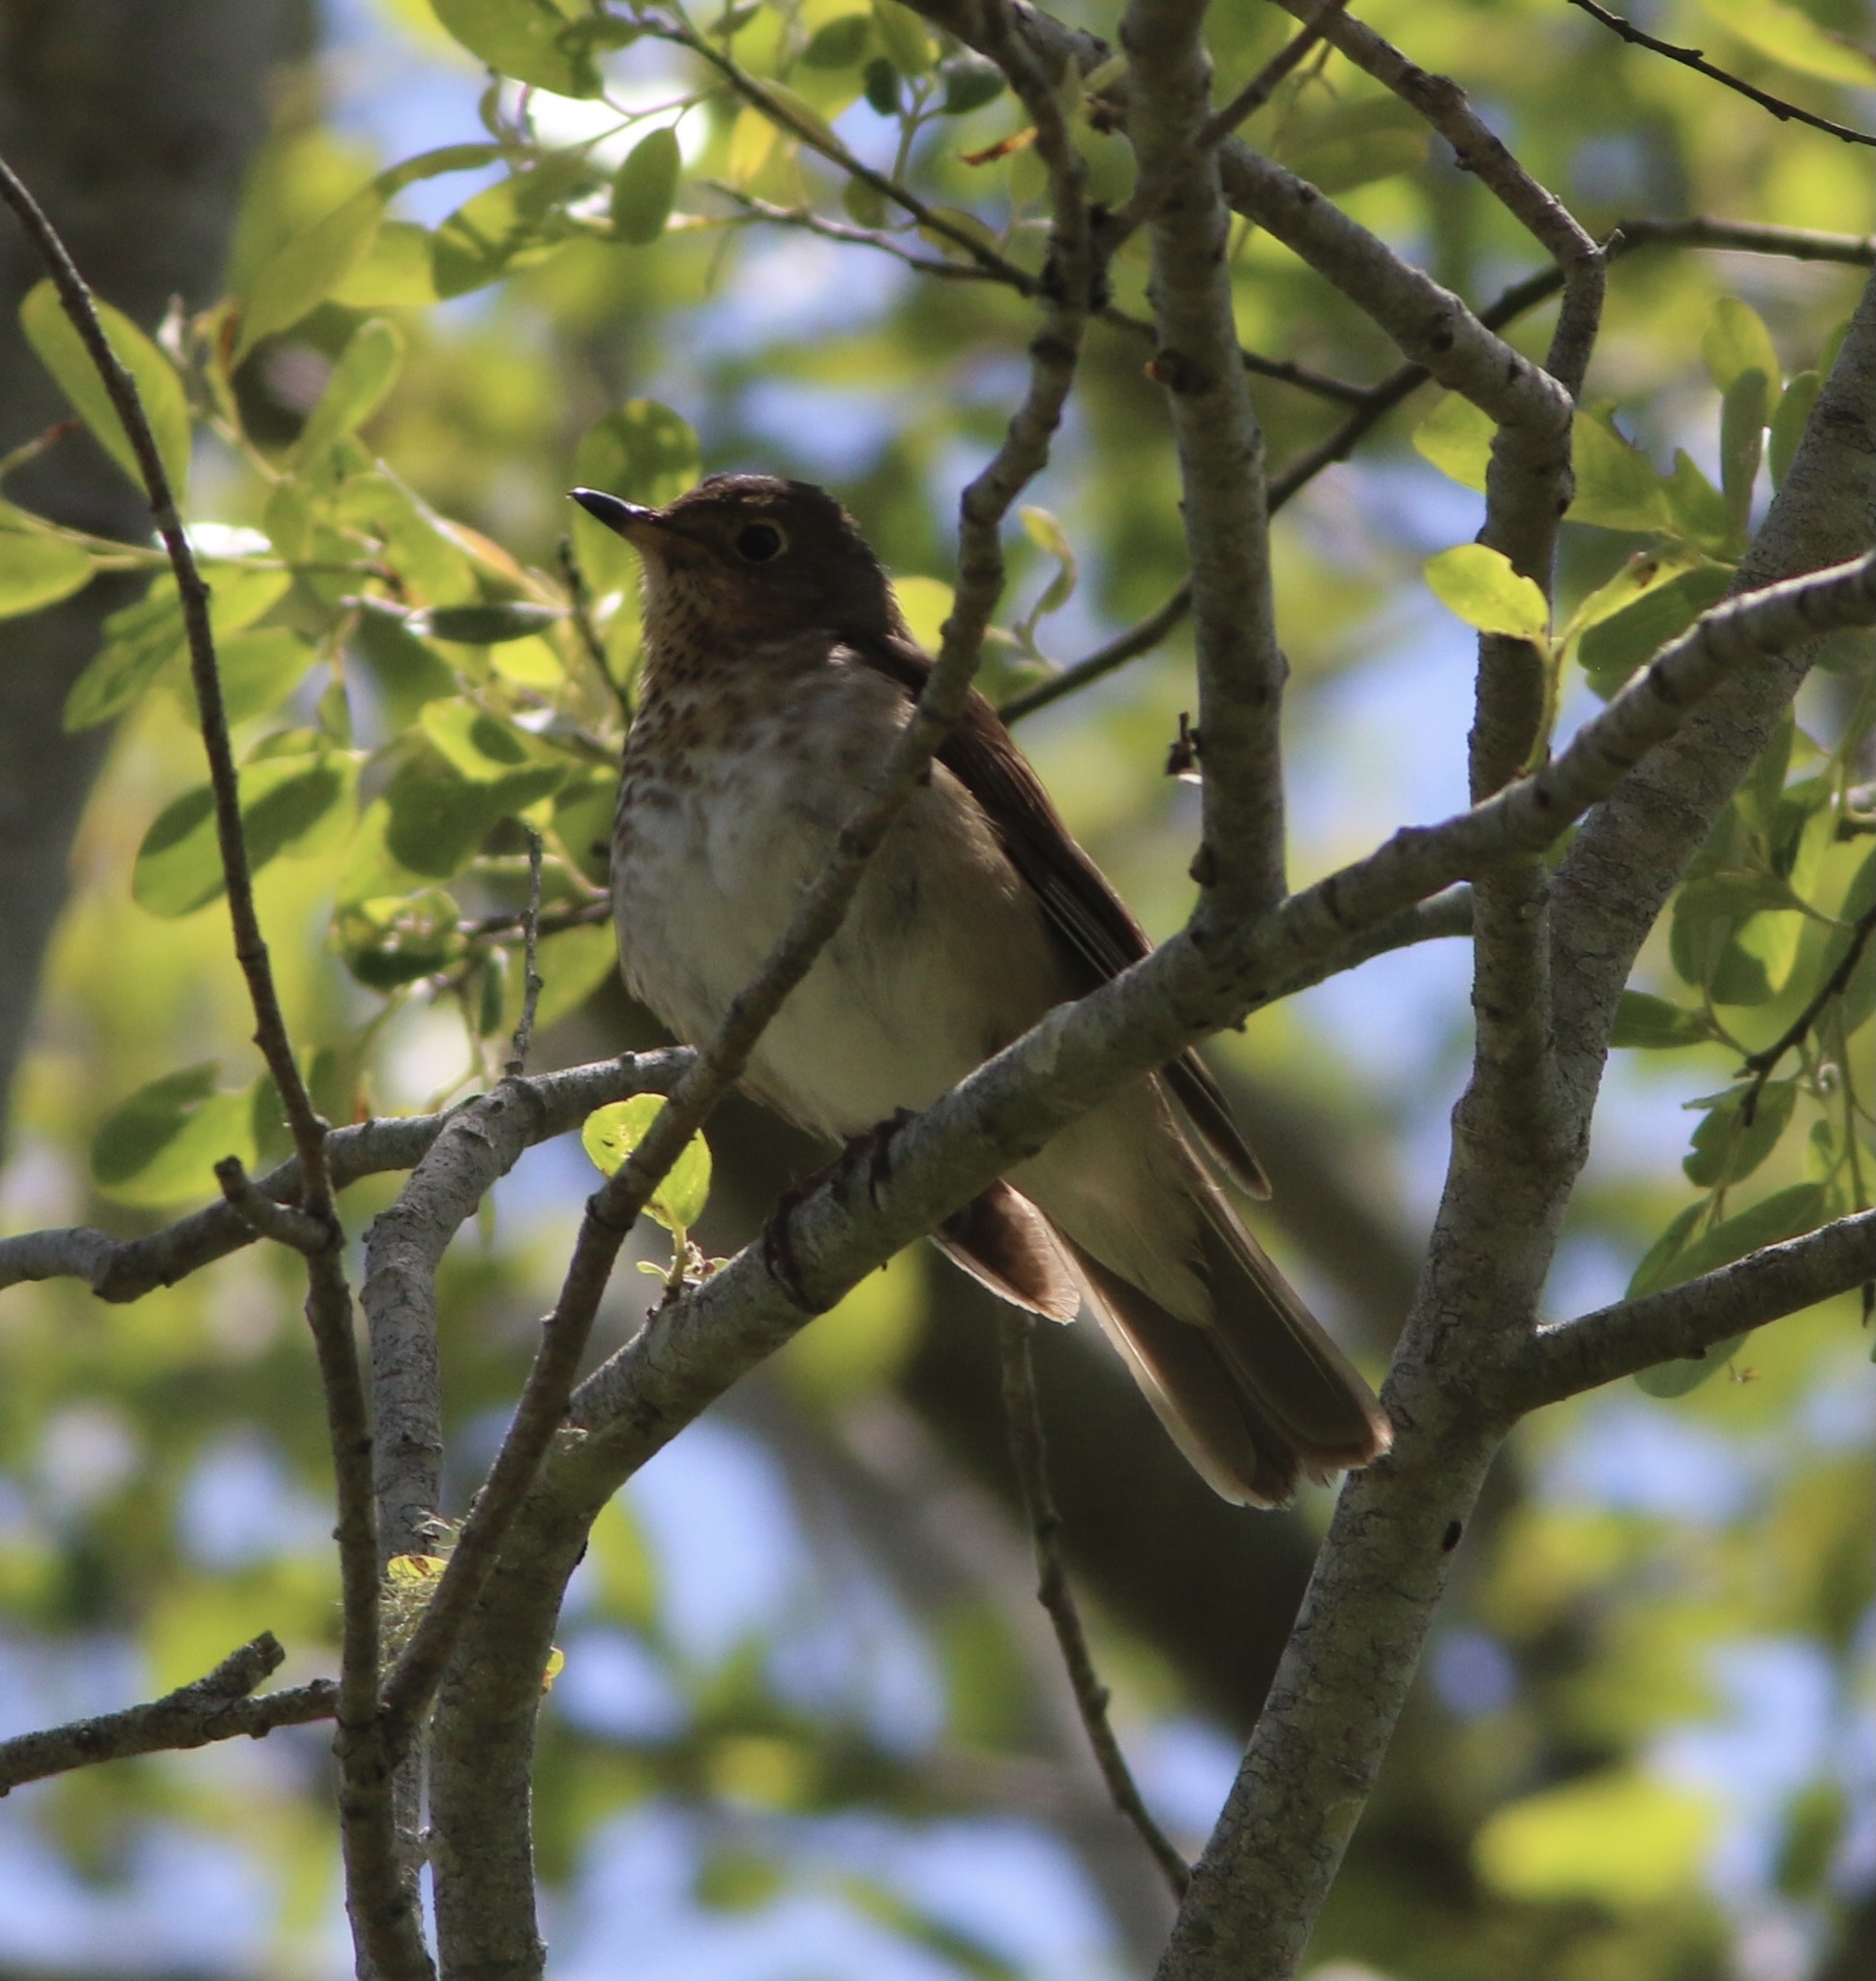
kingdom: Animalia
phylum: Chordata
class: Aves
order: Passeriformes
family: Turdidae
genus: Catharus
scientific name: Catharus ustulatus
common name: Swainson's thrush
